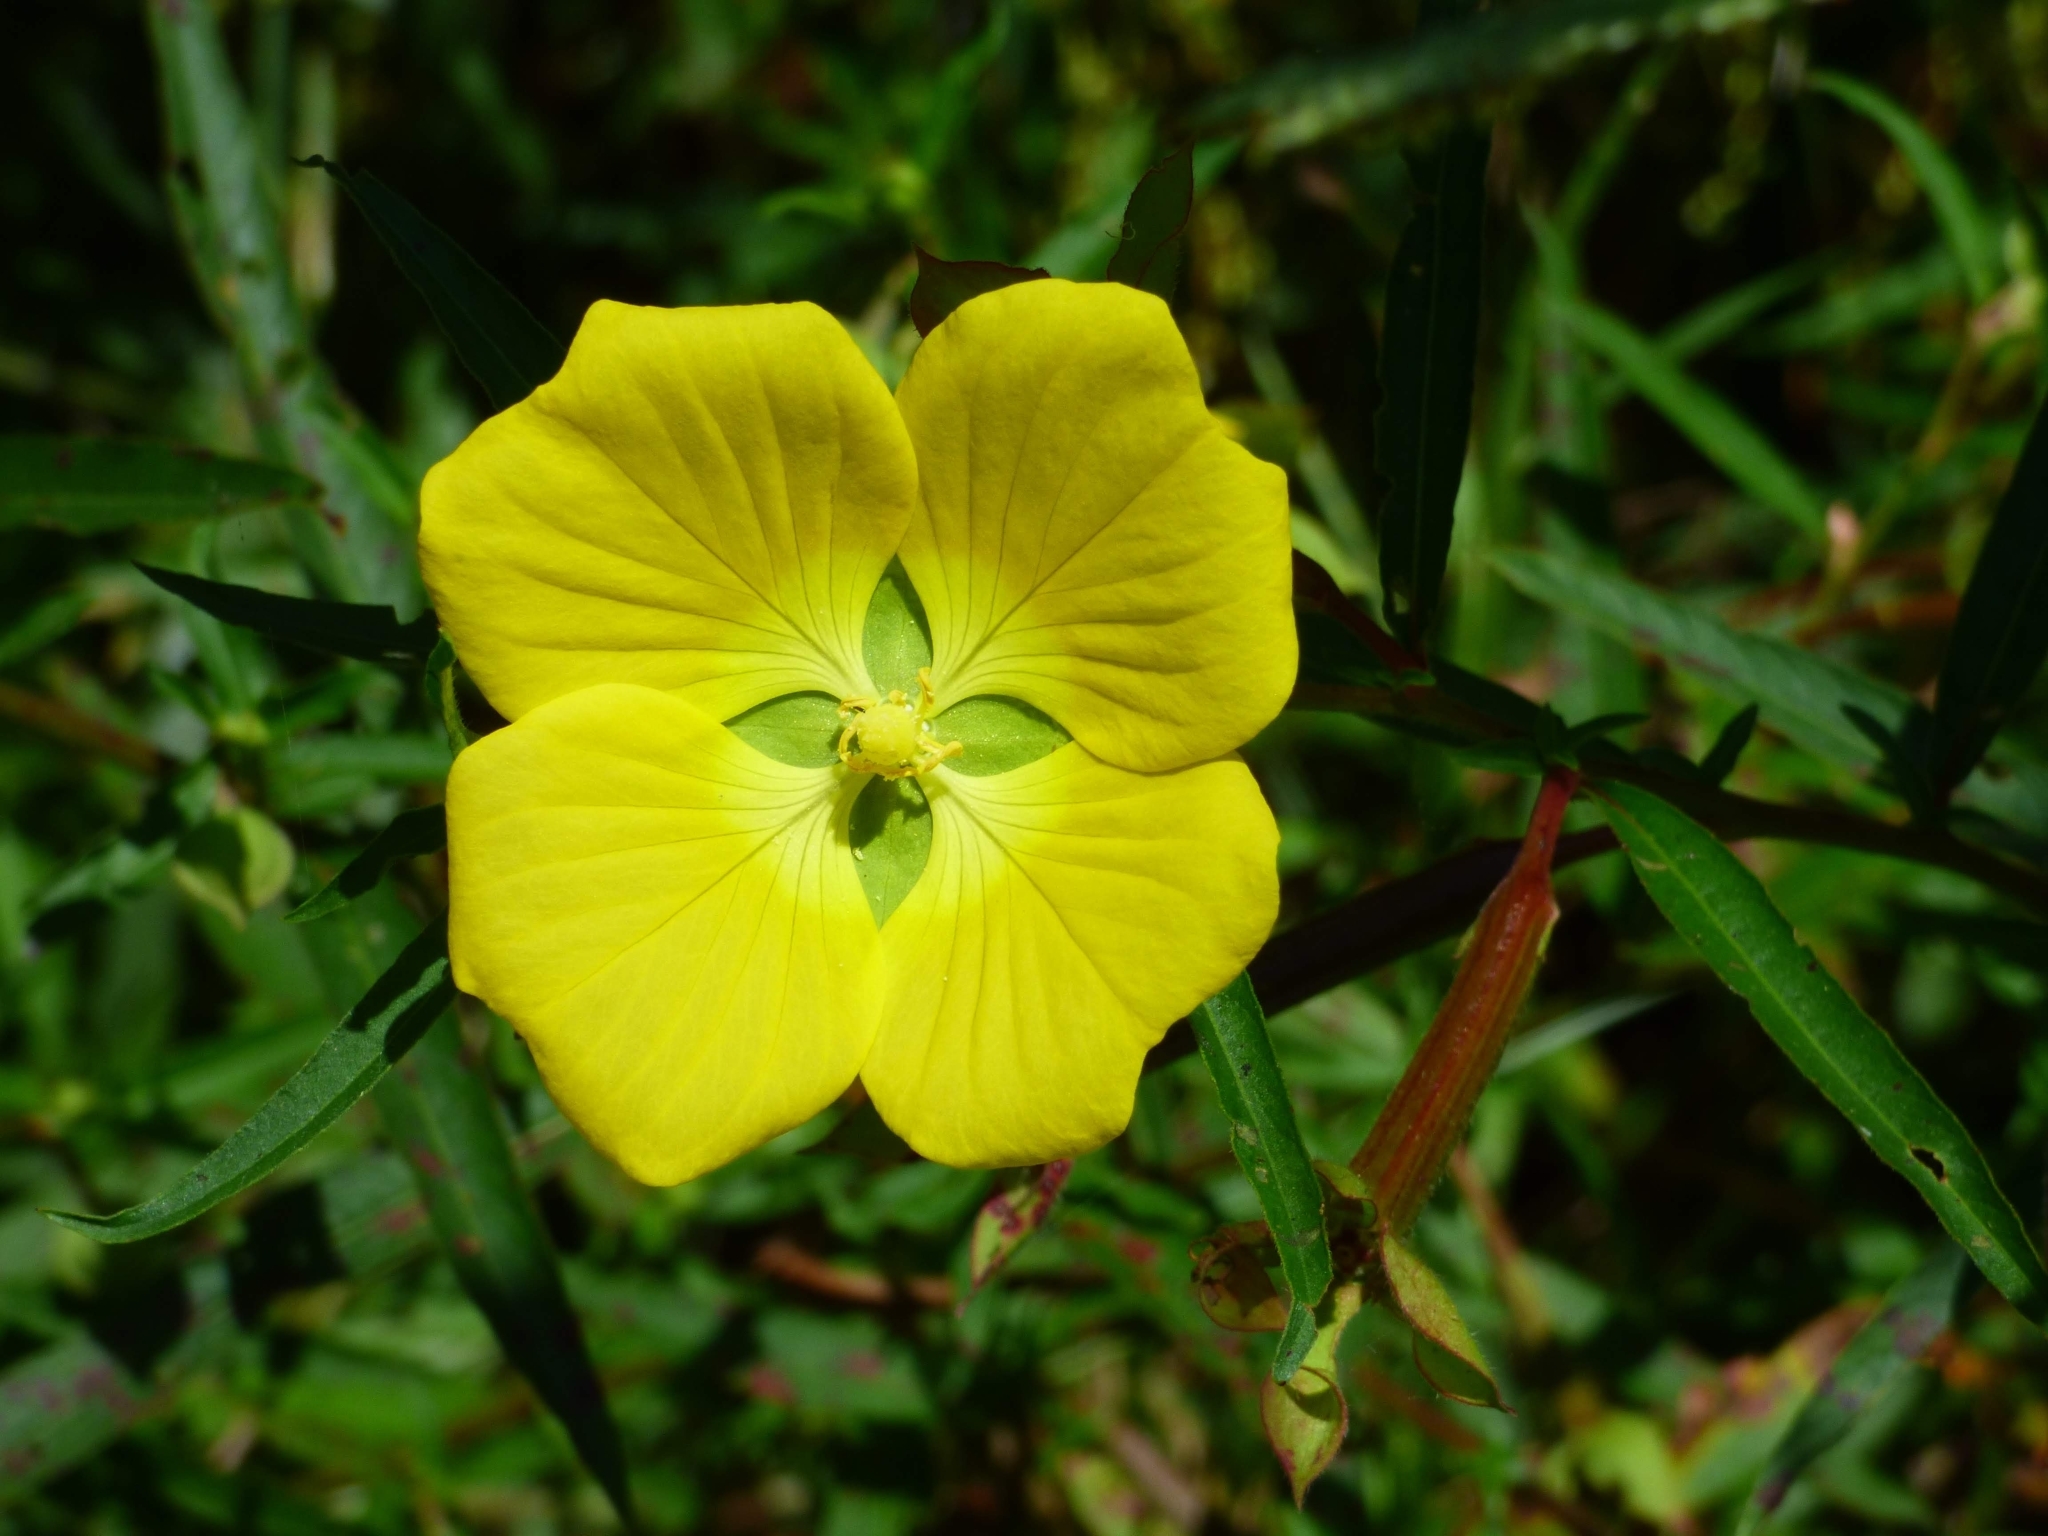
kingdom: Plantae
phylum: Tracheophyta
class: Magnoliopsida
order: Myrtales
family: Onagraceae
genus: Ludwigia
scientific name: Ludwigia bonariensis
